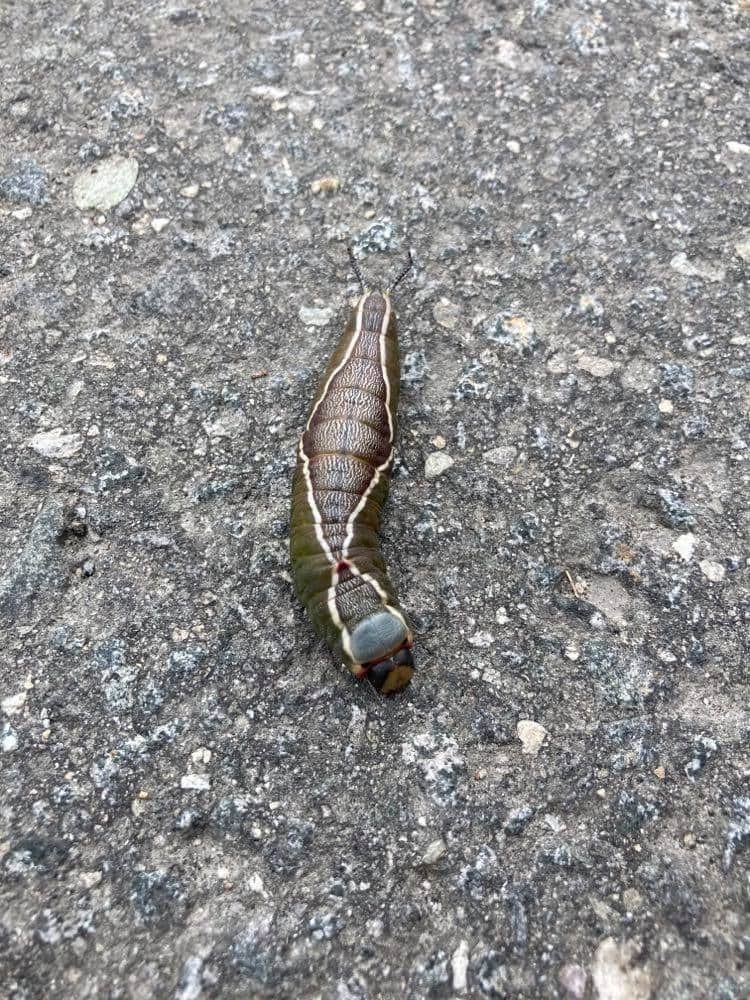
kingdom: Animalia
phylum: Arthropoda
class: Insecta
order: Lepidoptera
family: Notodontidae
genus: Cerura
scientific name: Cerura vinula
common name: Puss moth
